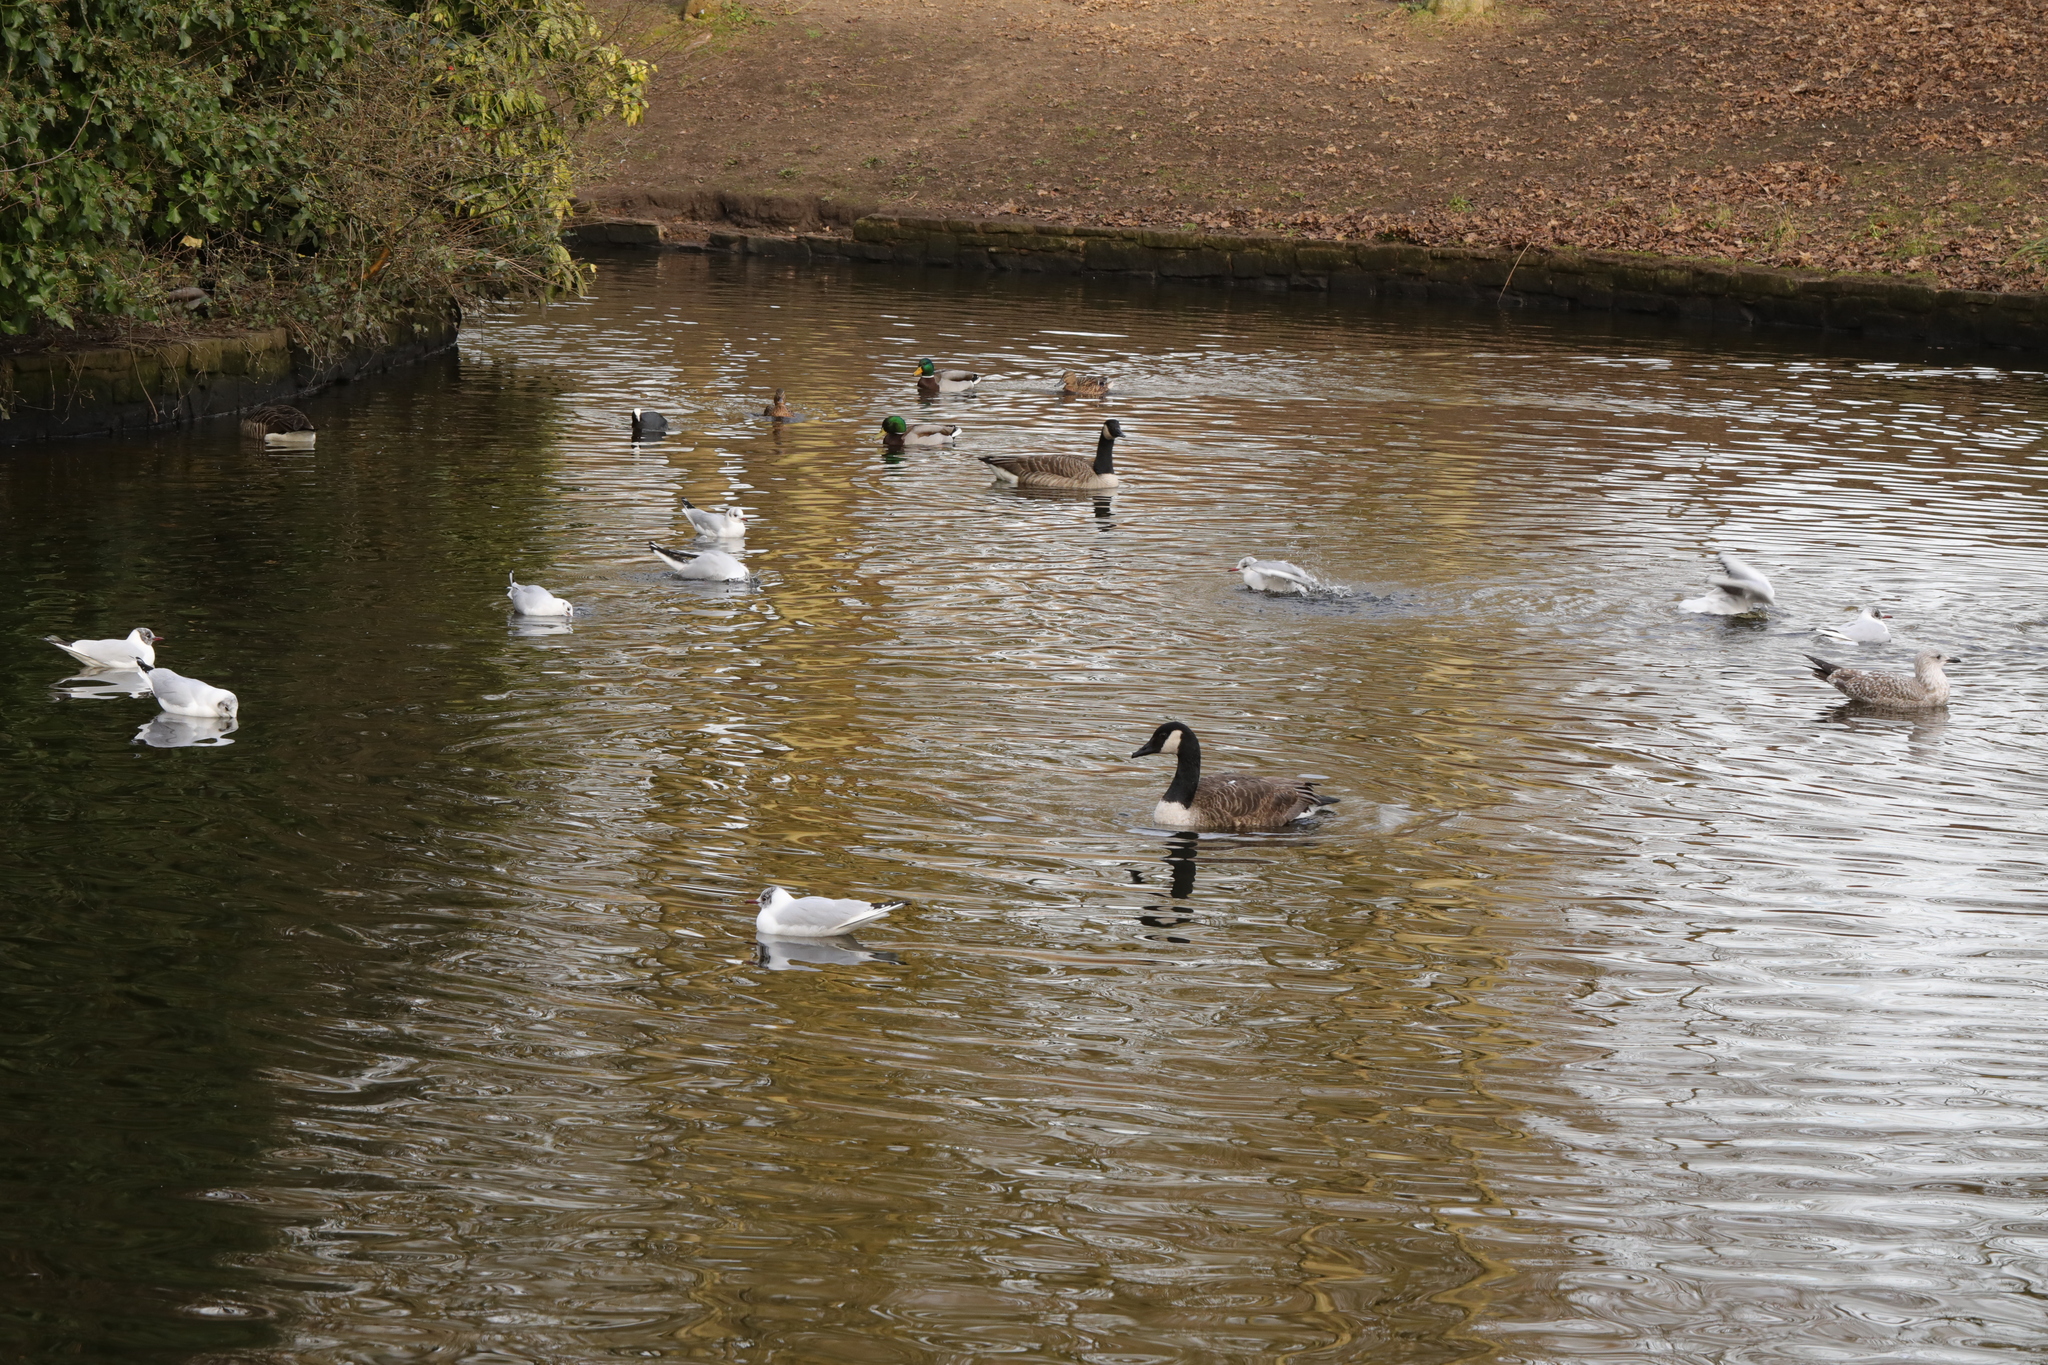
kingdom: Animalia
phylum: Chordata
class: Aves
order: Gruiformes
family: Rallidae
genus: Fulica
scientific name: Fulica atra
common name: Eurasian coot
